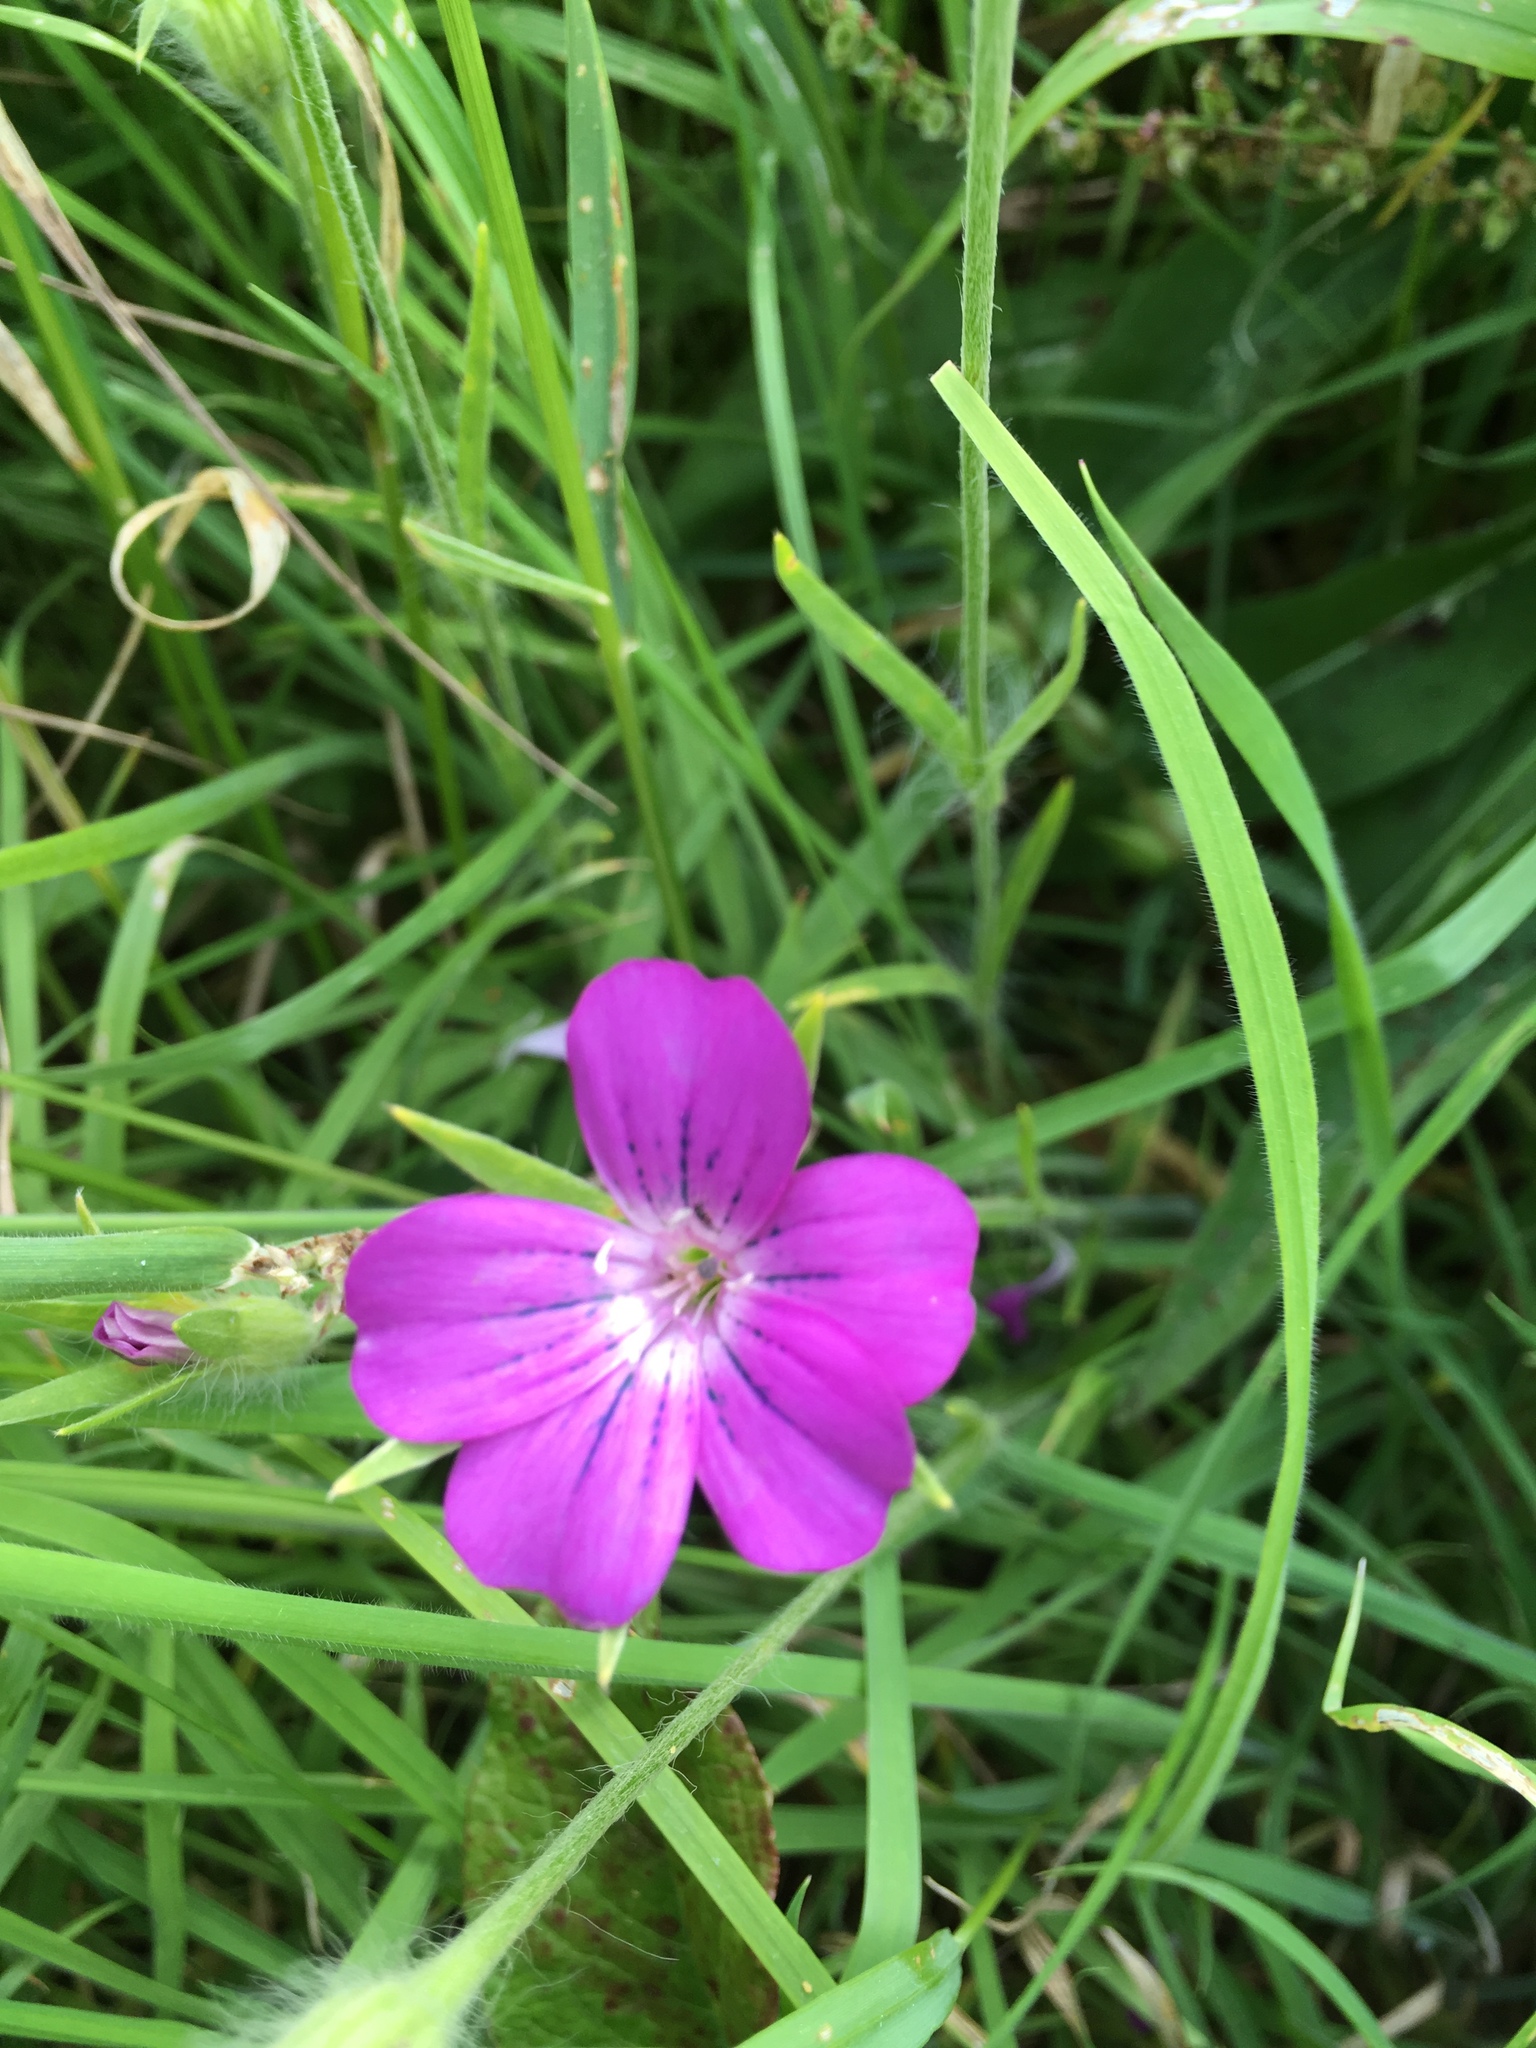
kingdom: Plantae
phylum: Tracheophyta
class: Magnoliopsida
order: Caryophyllales
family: Caryophyllaceae
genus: Agrostemma
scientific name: Agrostemma githago
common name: Common corncockle
